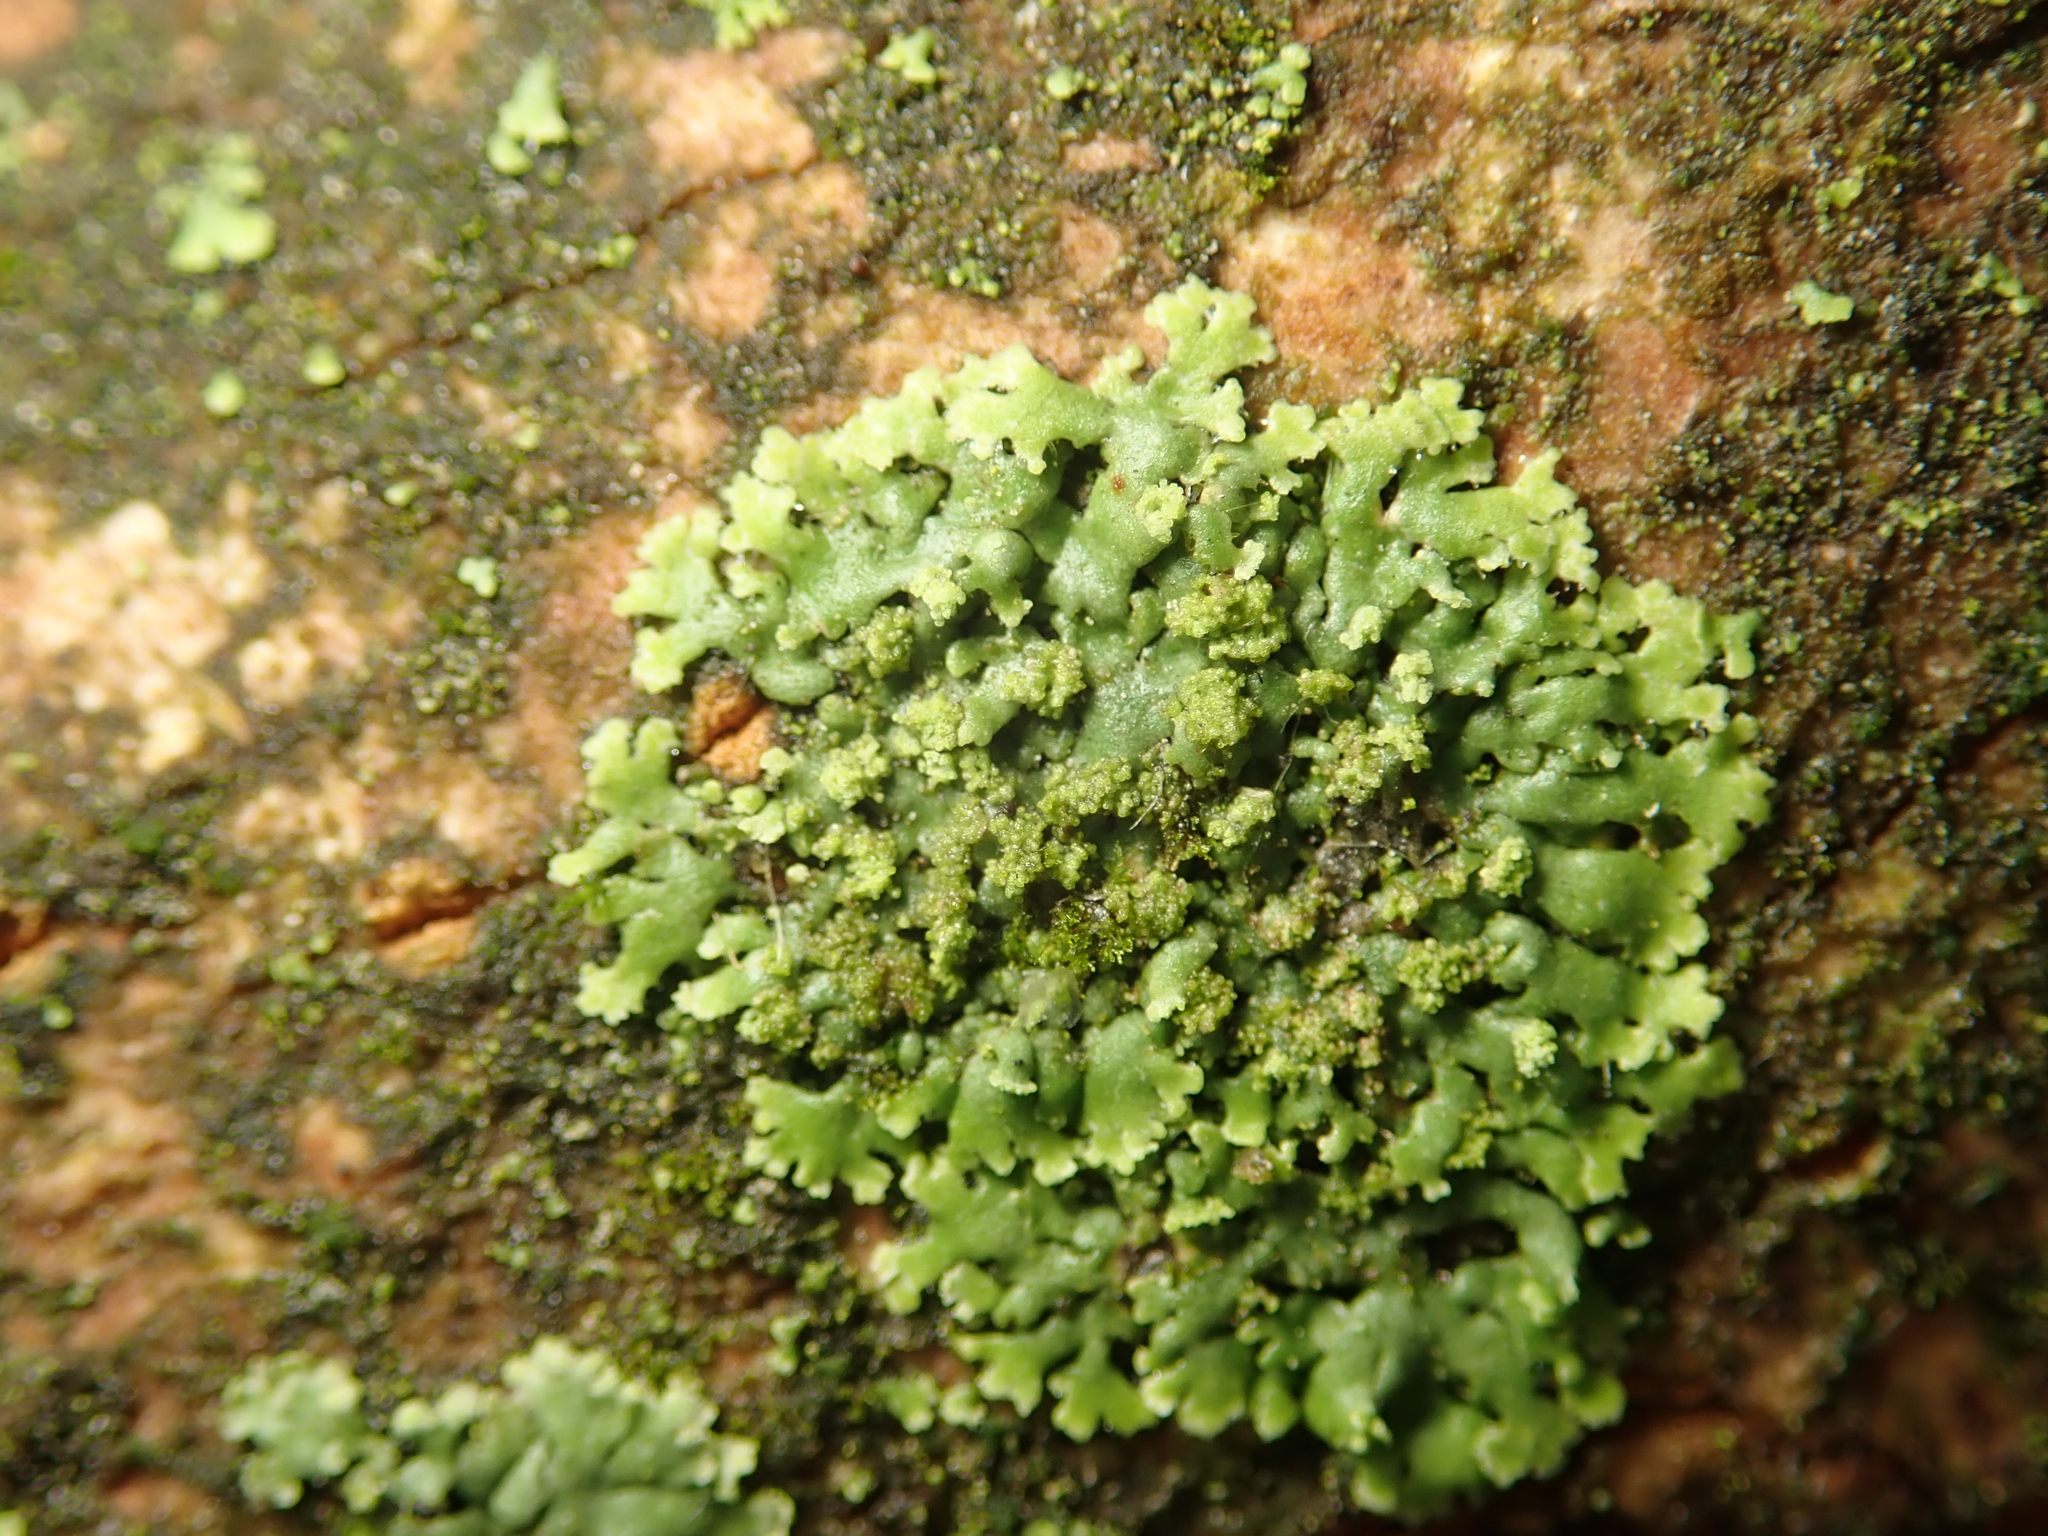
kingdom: Fungi
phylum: Ascomycota
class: Lecanoromycetes
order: Caliciales
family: Physciaceae
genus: Phaeophyscia
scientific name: Phaeophyscia orbicularis
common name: Mealy shadow lichen
